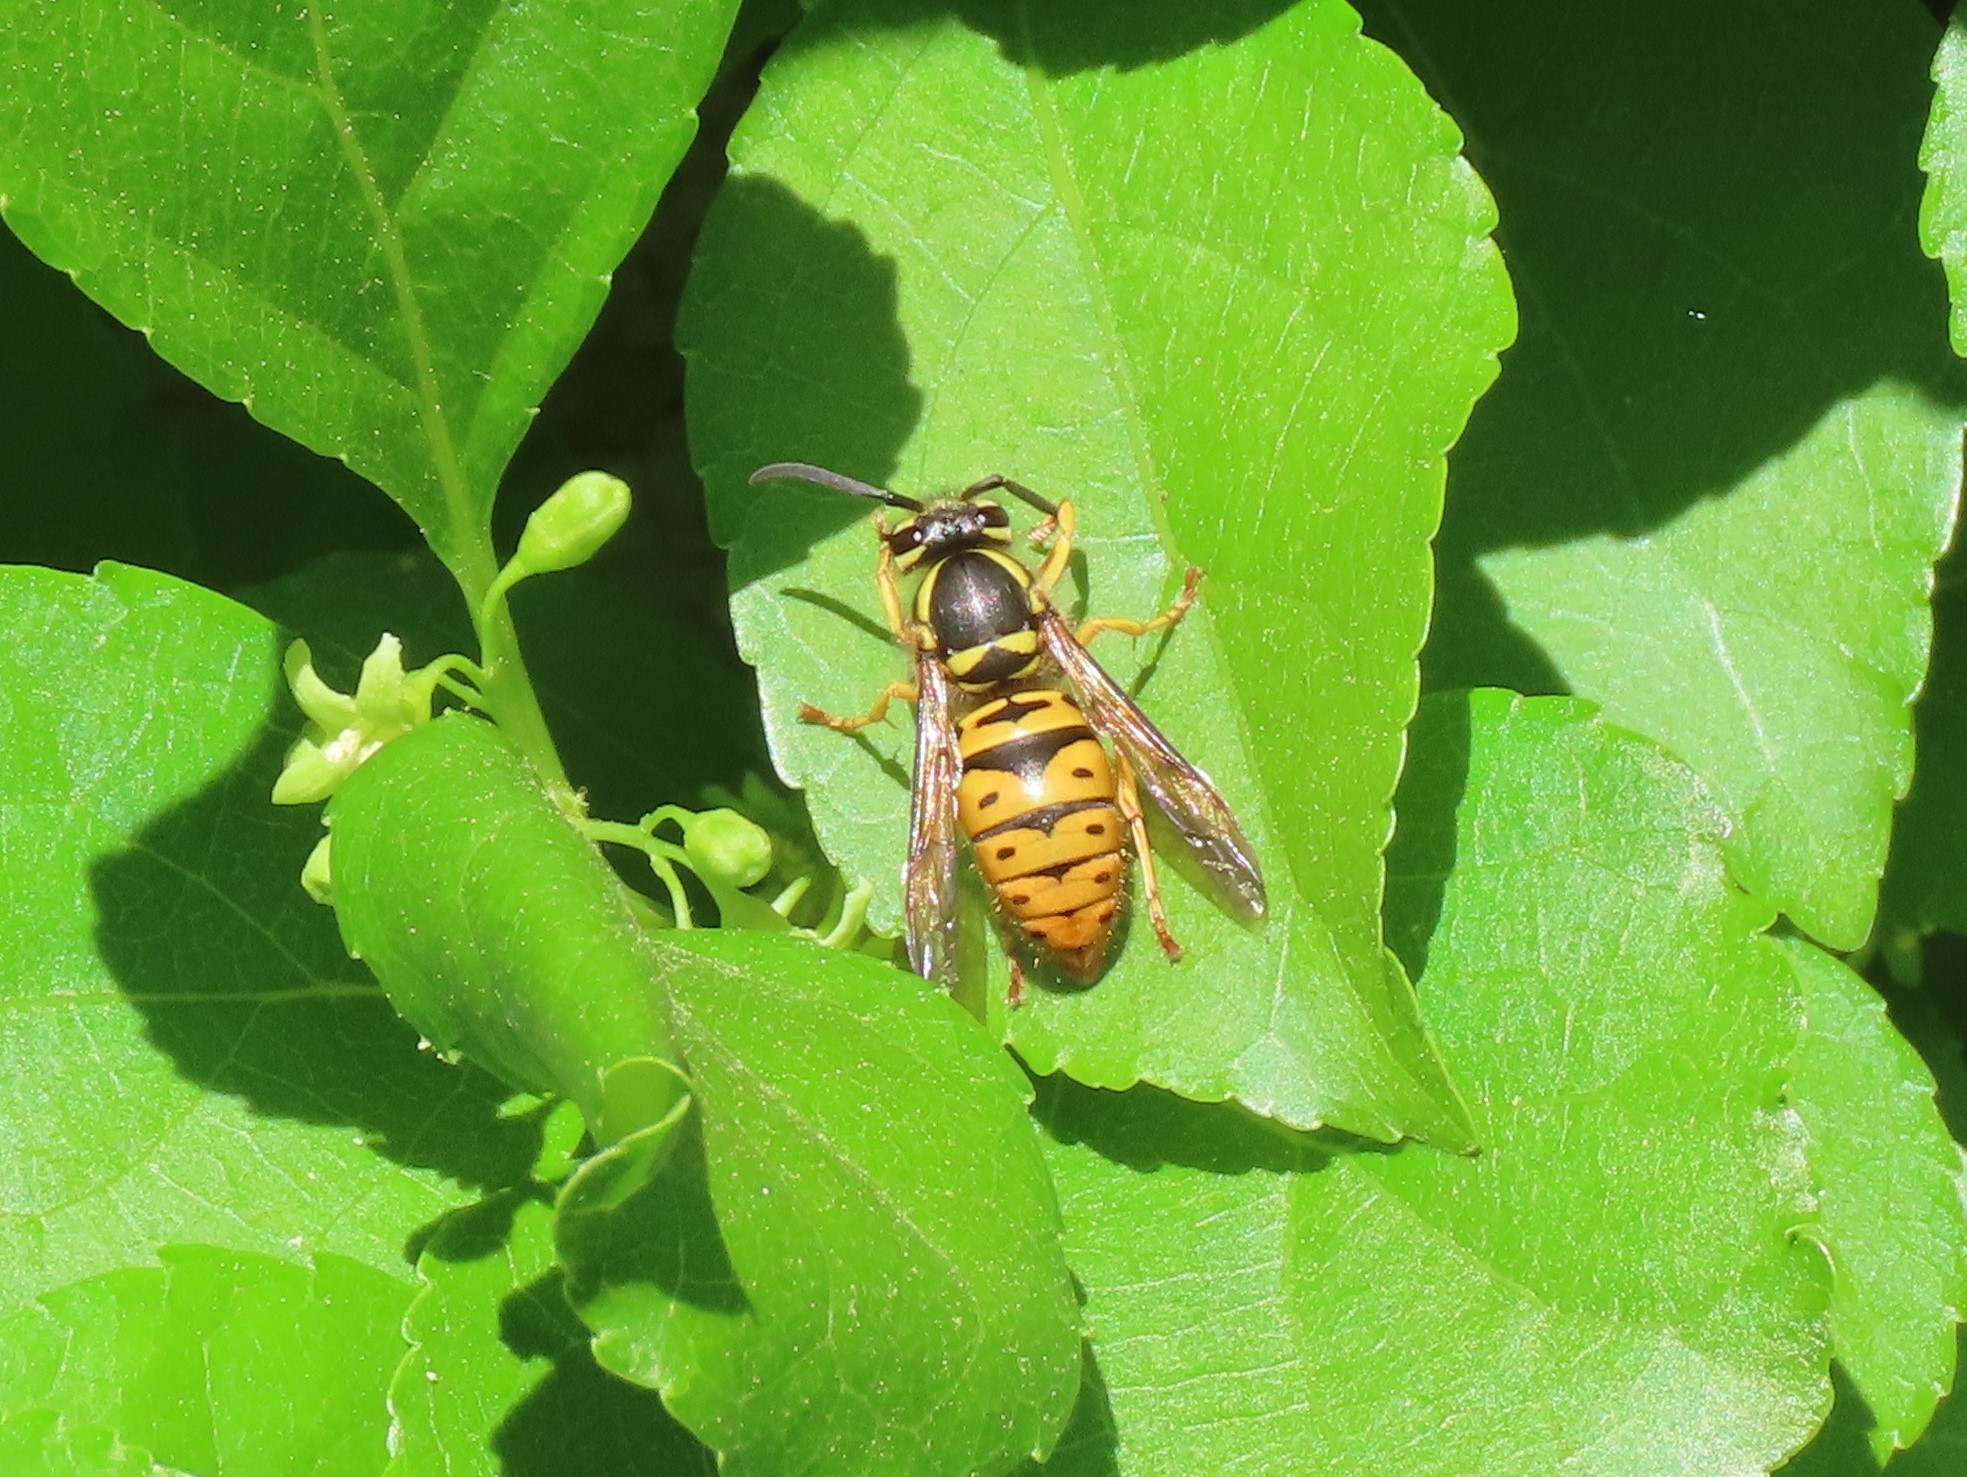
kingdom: Animalia
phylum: Arthropoda
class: Insecta
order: Hymenoptera
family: Vespidae
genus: Vespula
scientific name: Vespula maculifrons
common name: Eastern yellowjacket
